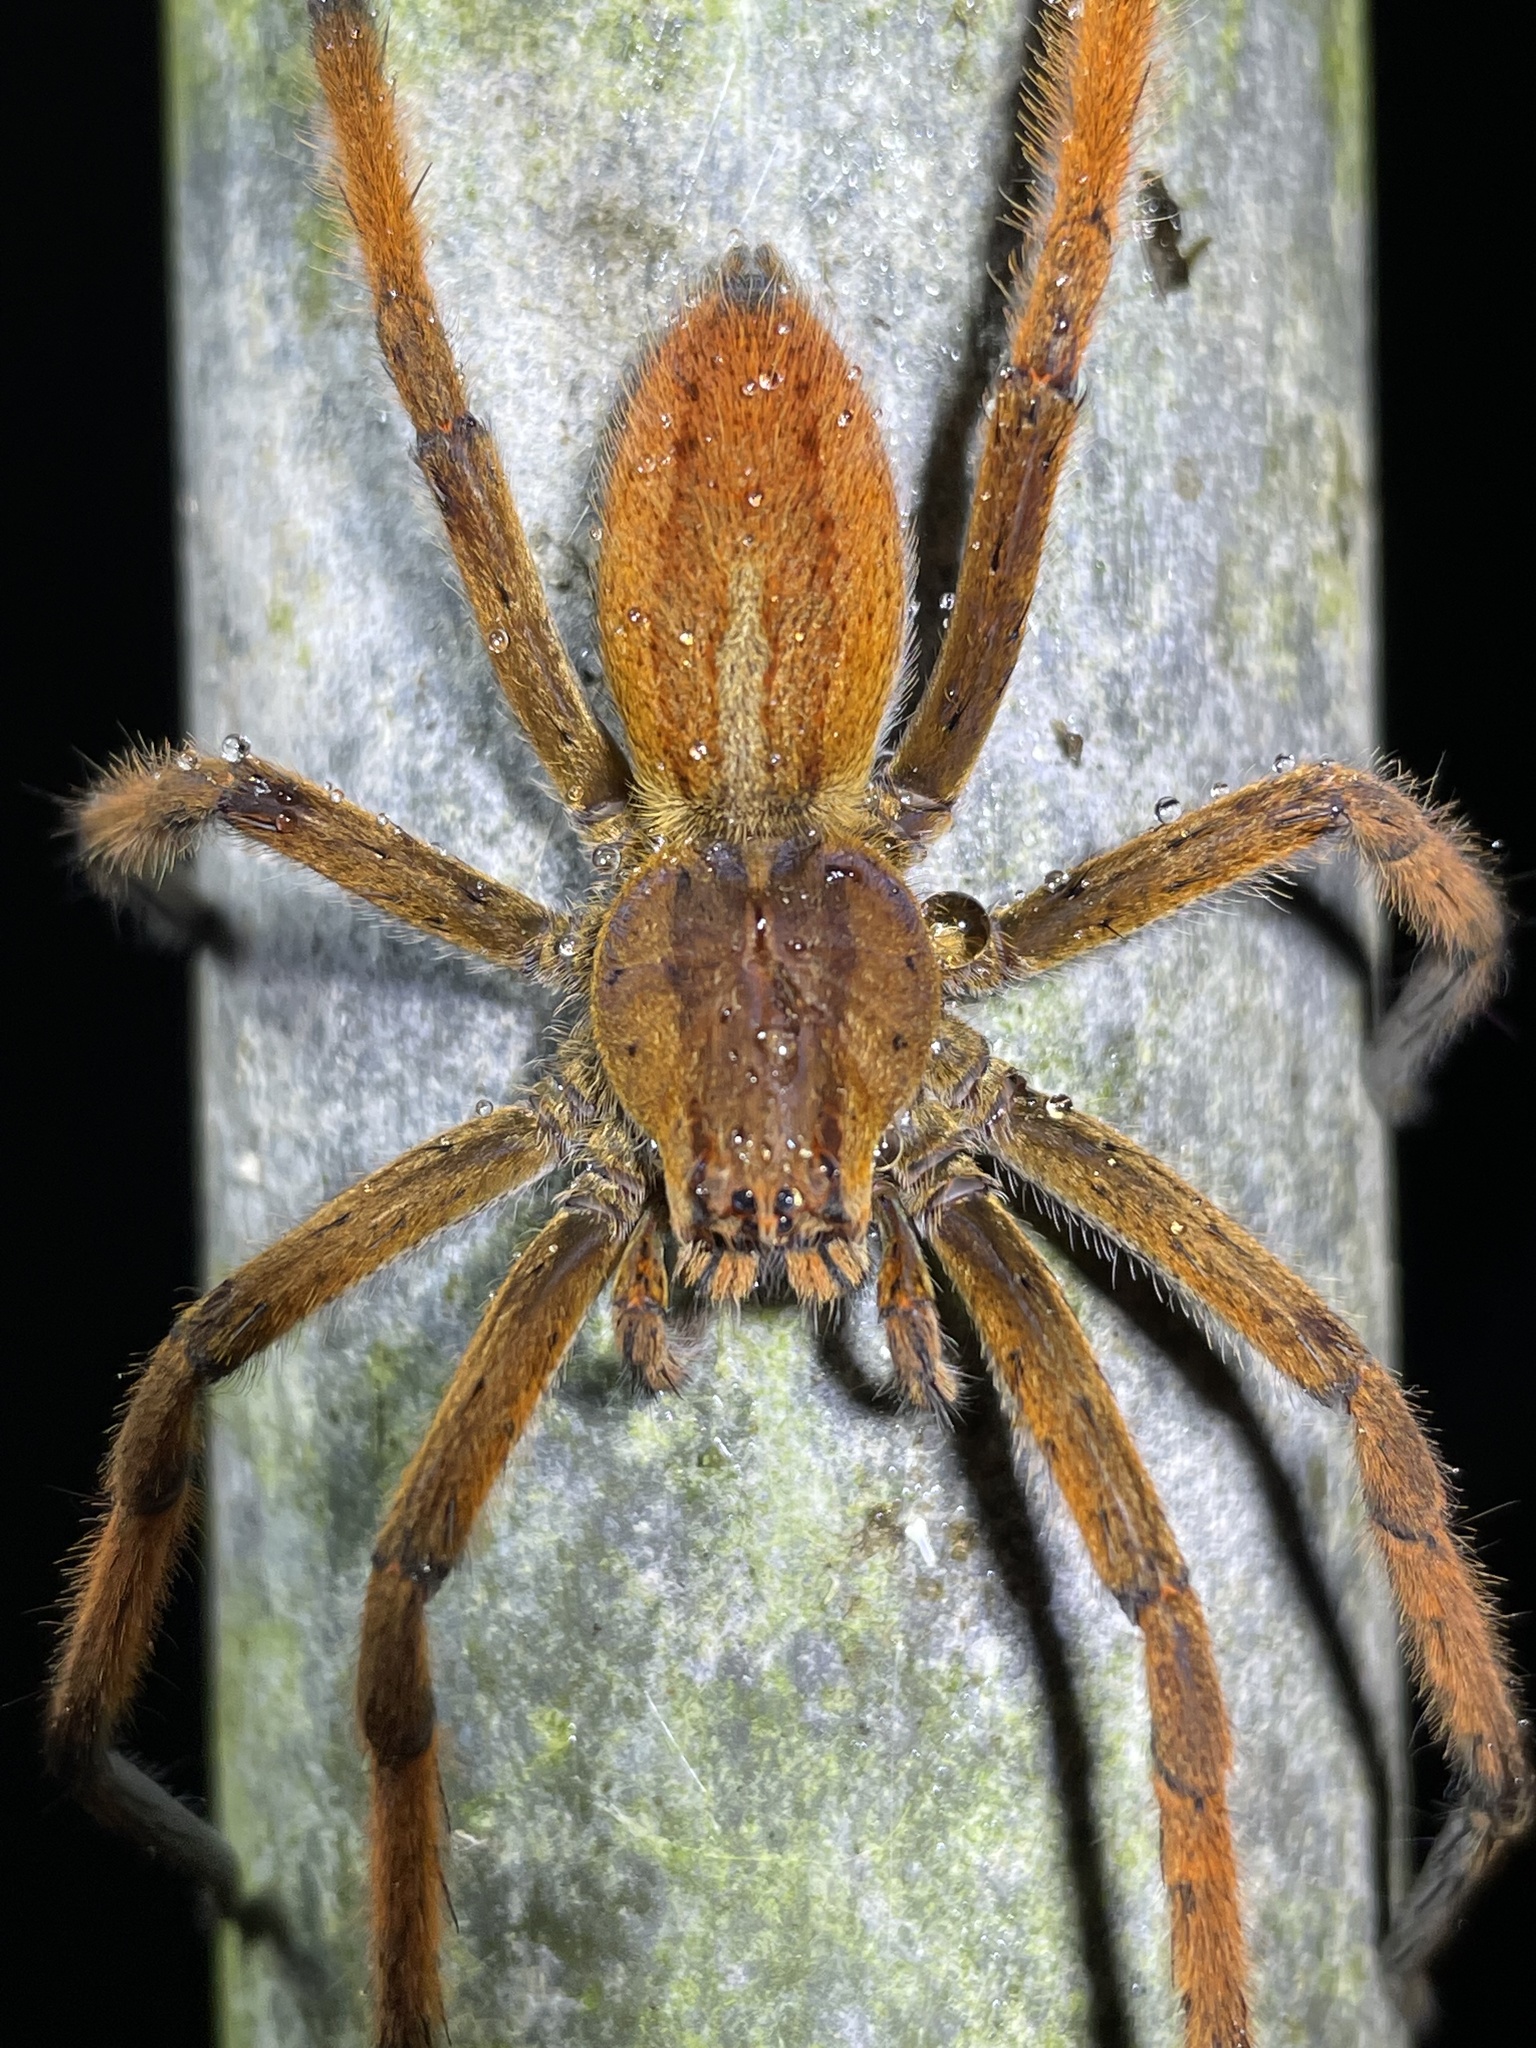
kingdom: Animalia
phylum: Arthropoda
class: Arachnida
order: Araneae
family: Trechaleidae
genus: Cupiennius
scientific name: Cupiennius getazi
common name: Wandering spiders
